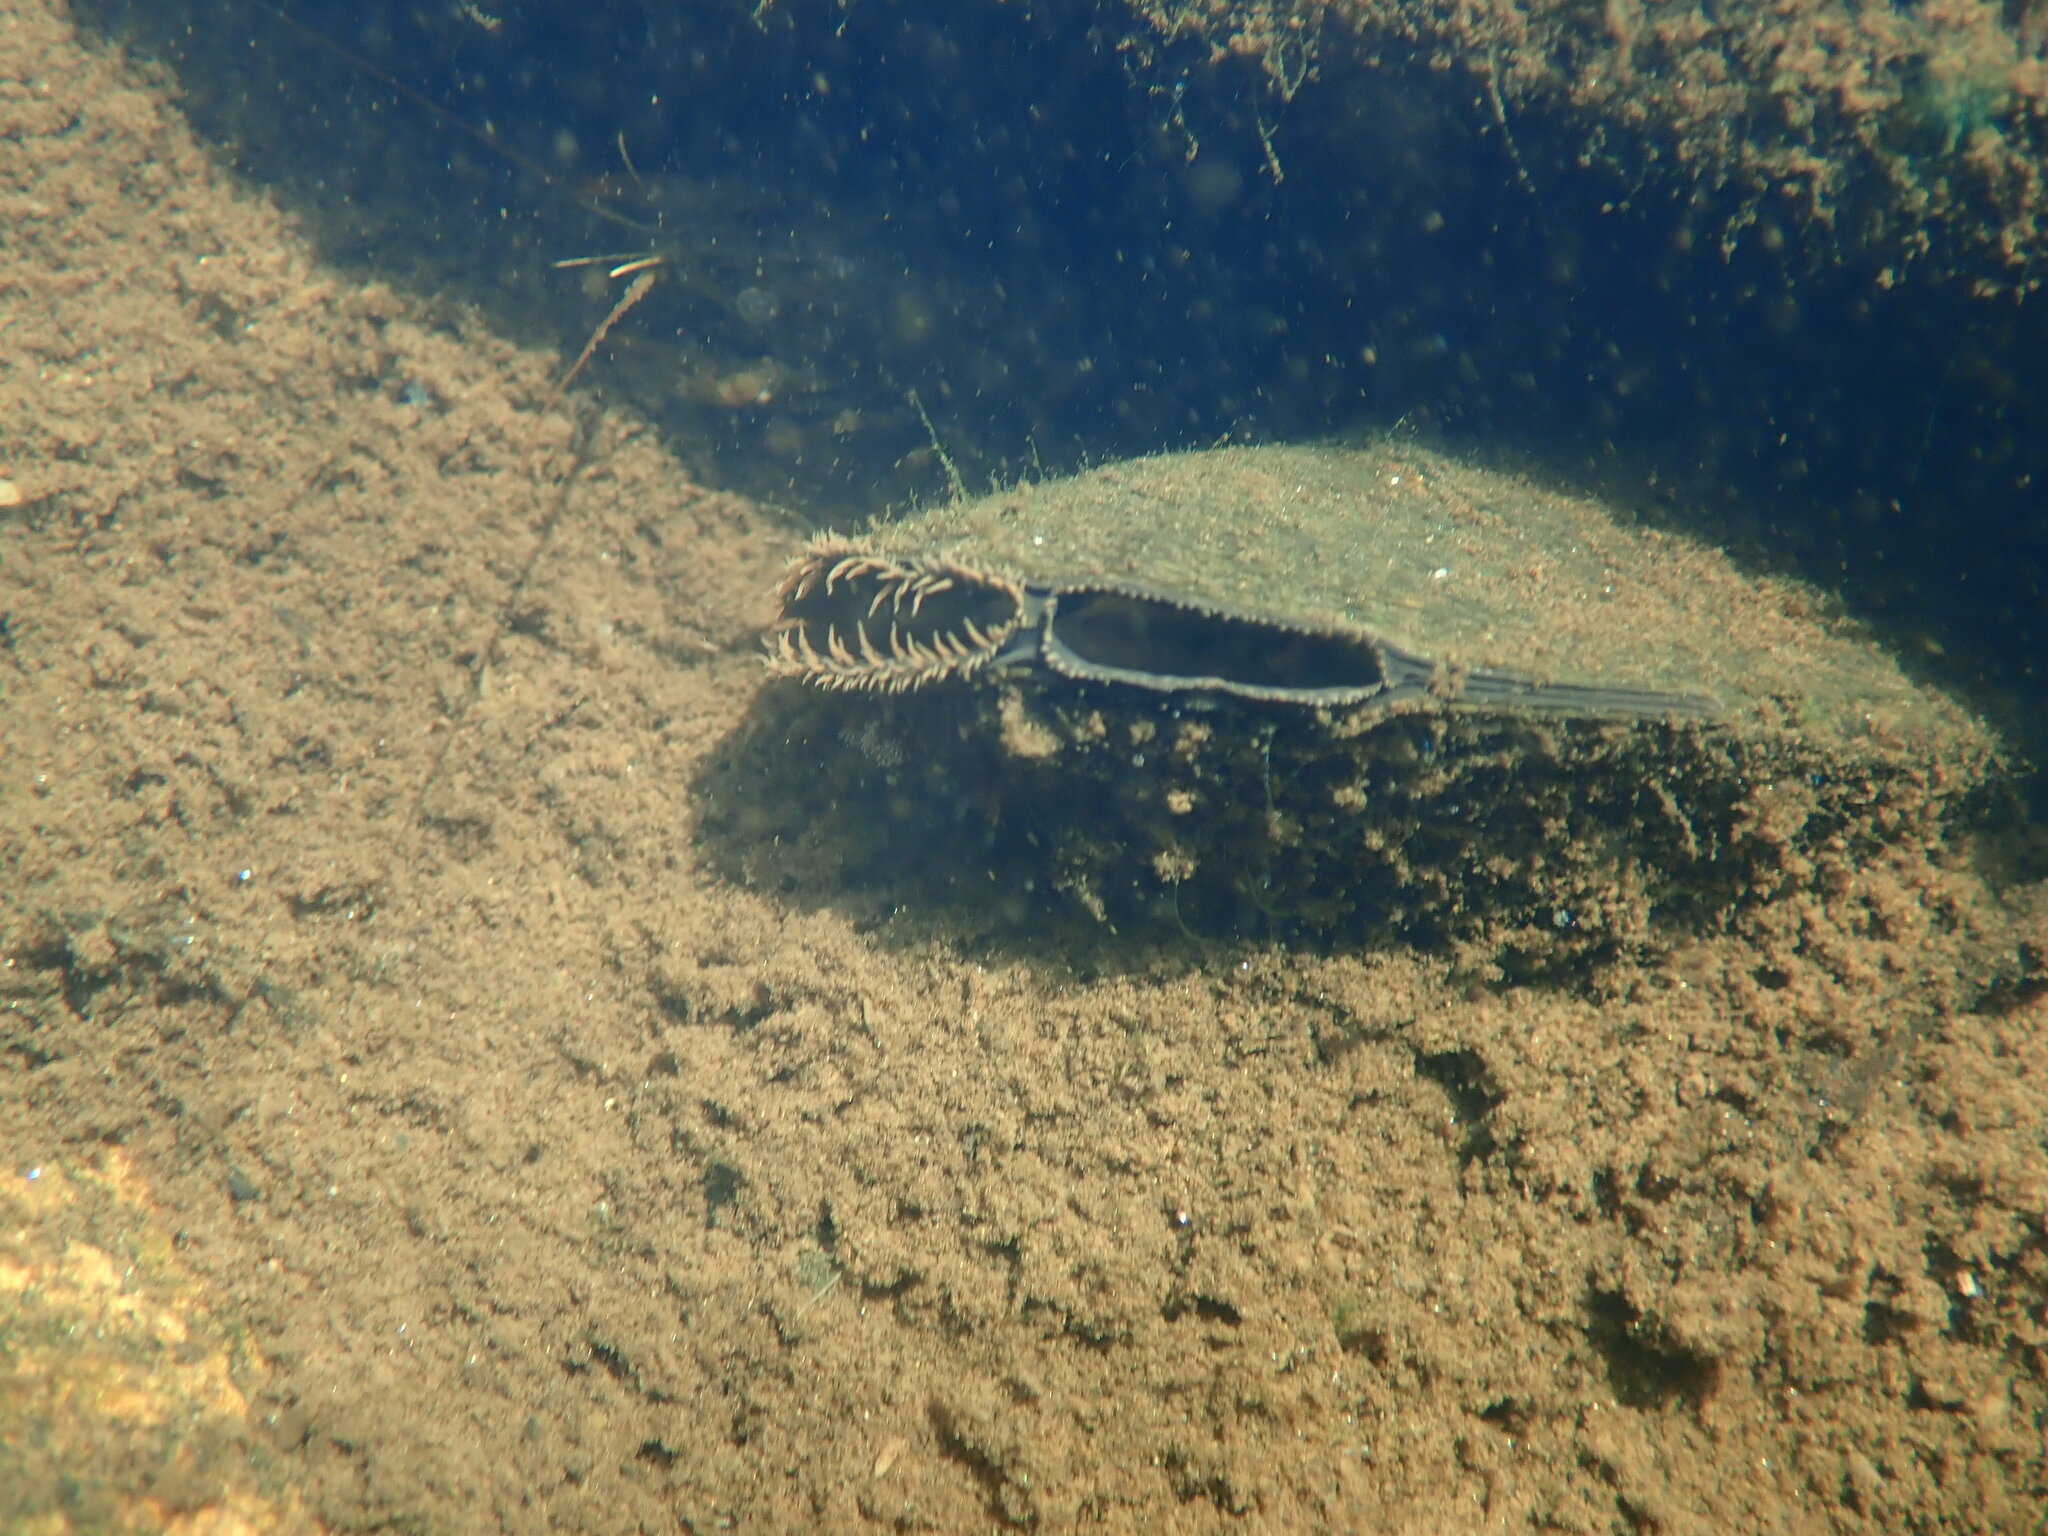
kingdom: Animalia
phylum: Mollusca
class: Bivalvia
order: Unionida
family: Unionidae
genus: Elliptio
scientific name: Elliptio complanata
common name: Eastern elliptio
